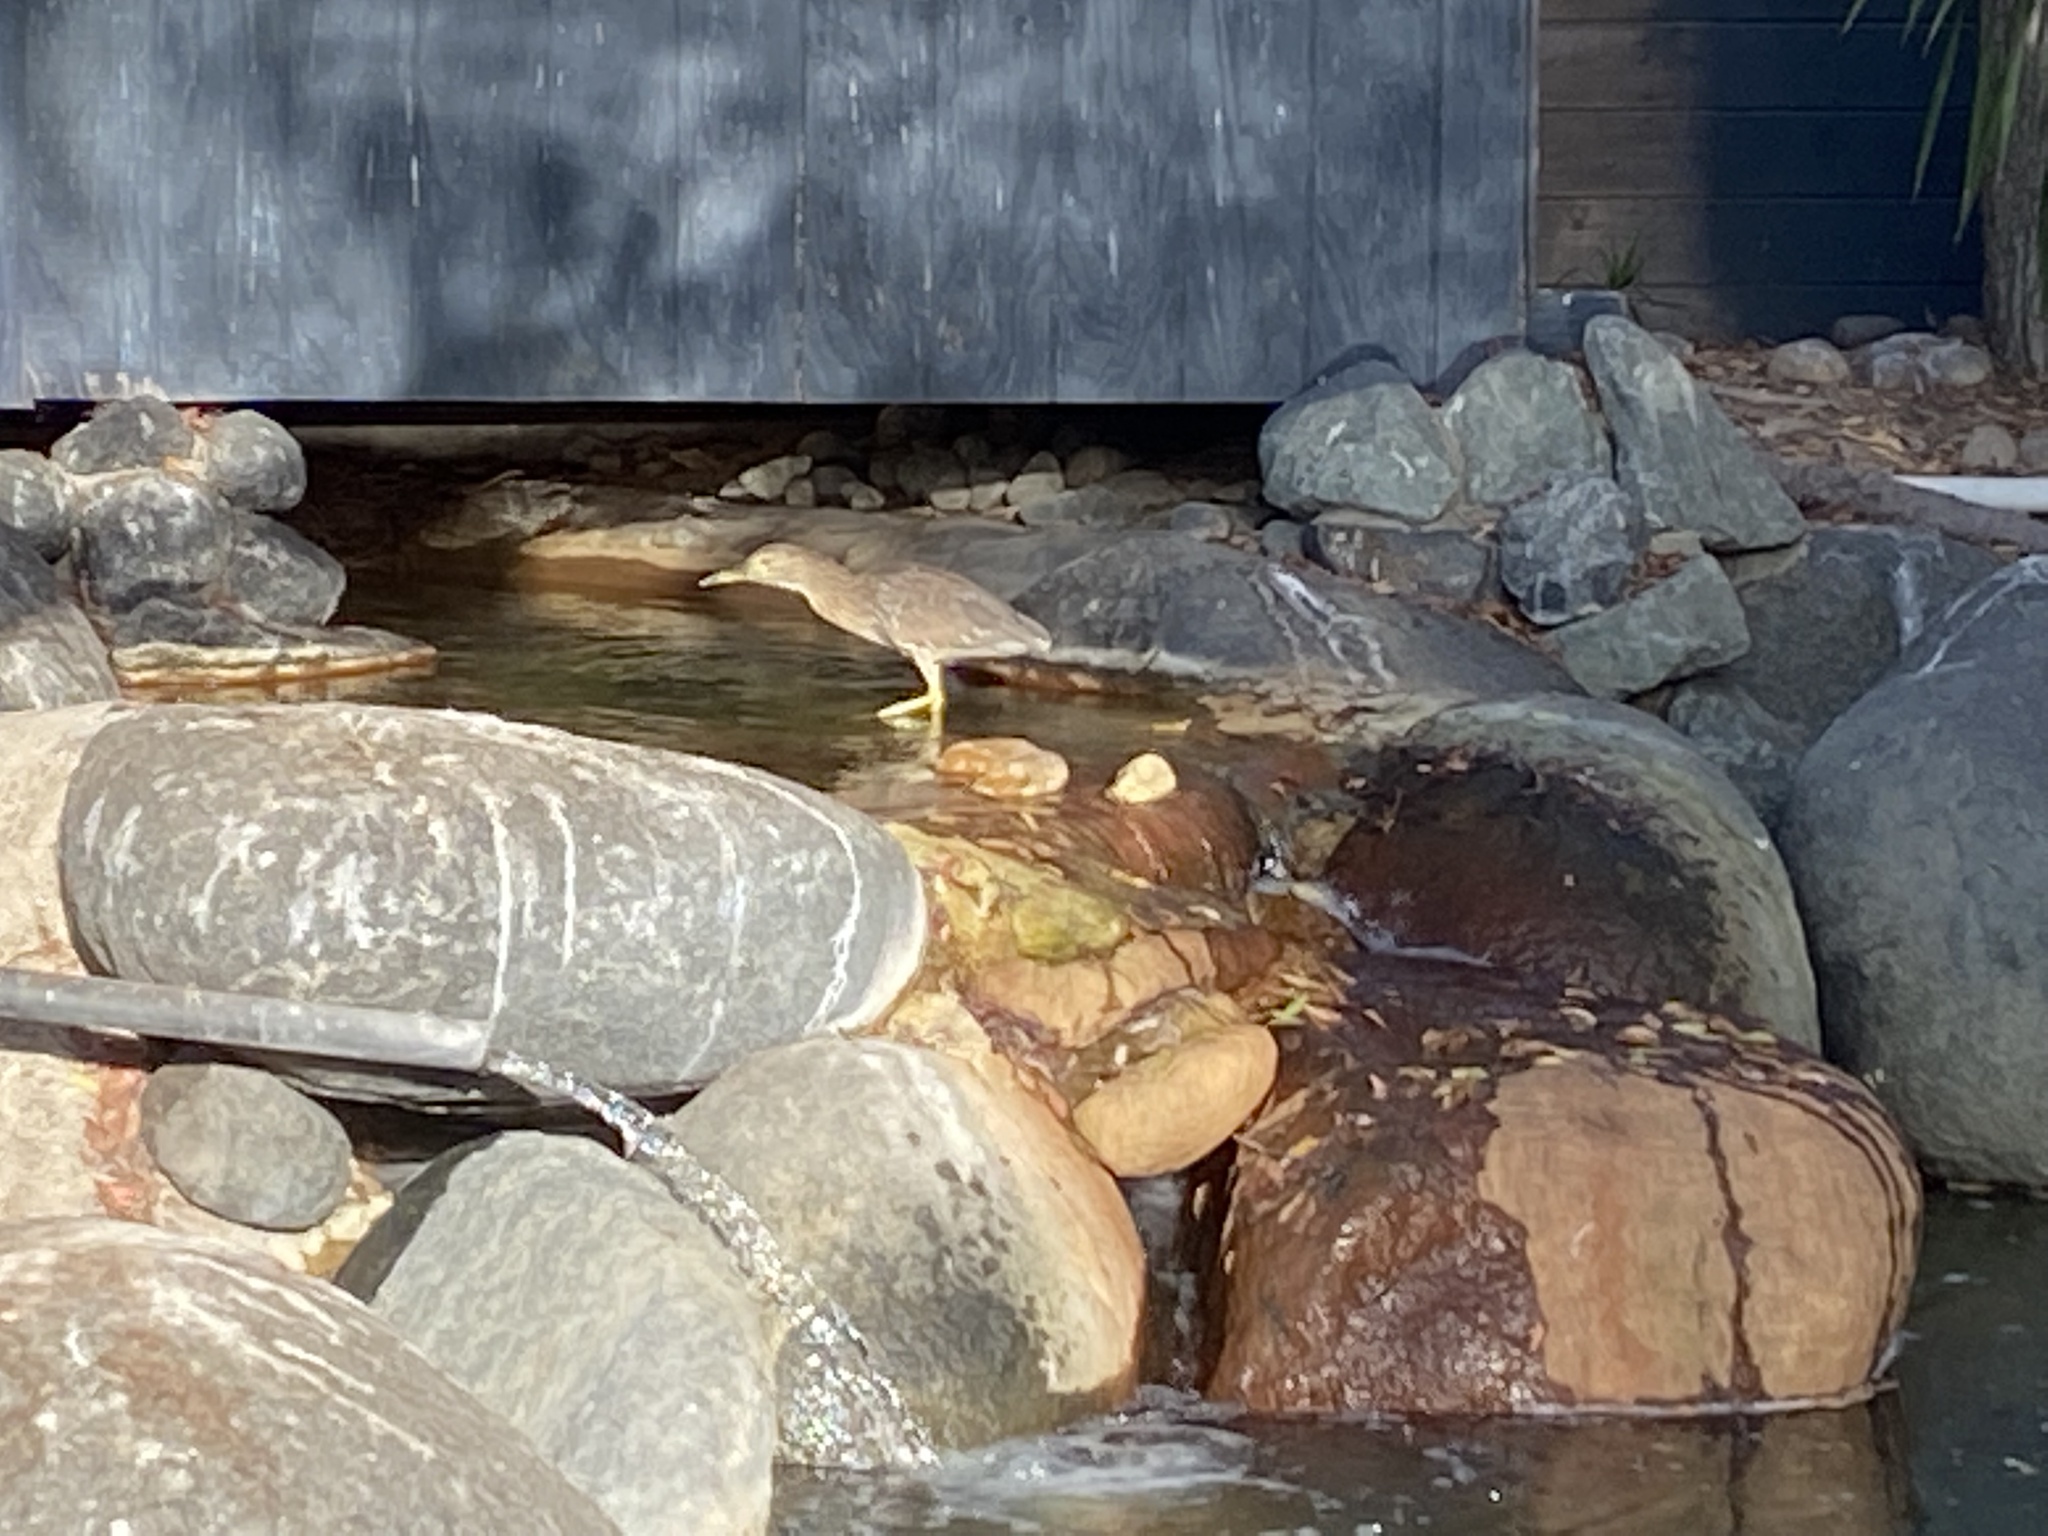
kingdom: Animalia
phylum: Chordata
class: Aves
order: Pelecaniformes
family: Ardeidae
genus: Nycticorax
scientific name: Nycticorax nycticorax
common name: Black-crowned night heron
